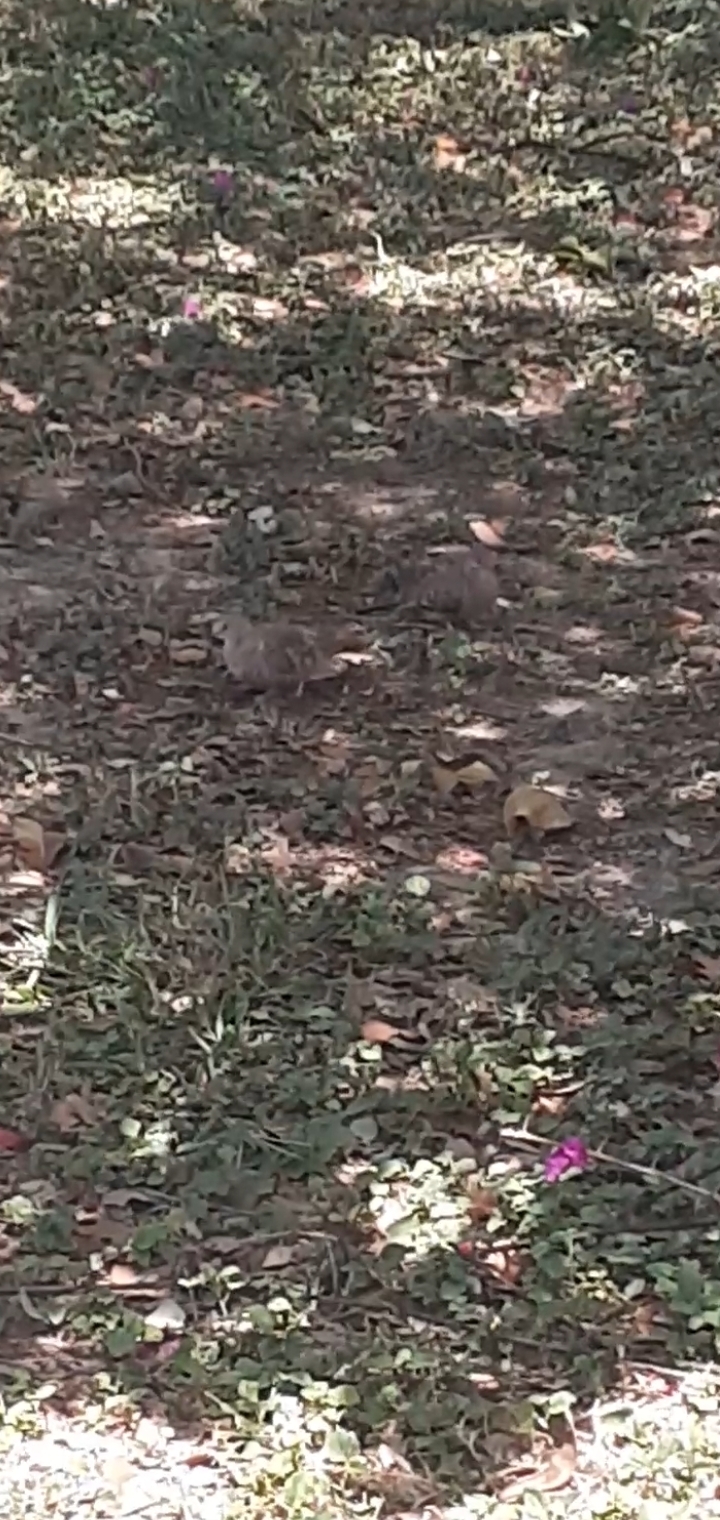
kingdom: Animalia
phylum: Chordata
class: Aves
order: Columbiformes
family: Columbidae
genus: Columbina
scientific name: Columbina inca
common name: Inca dove
